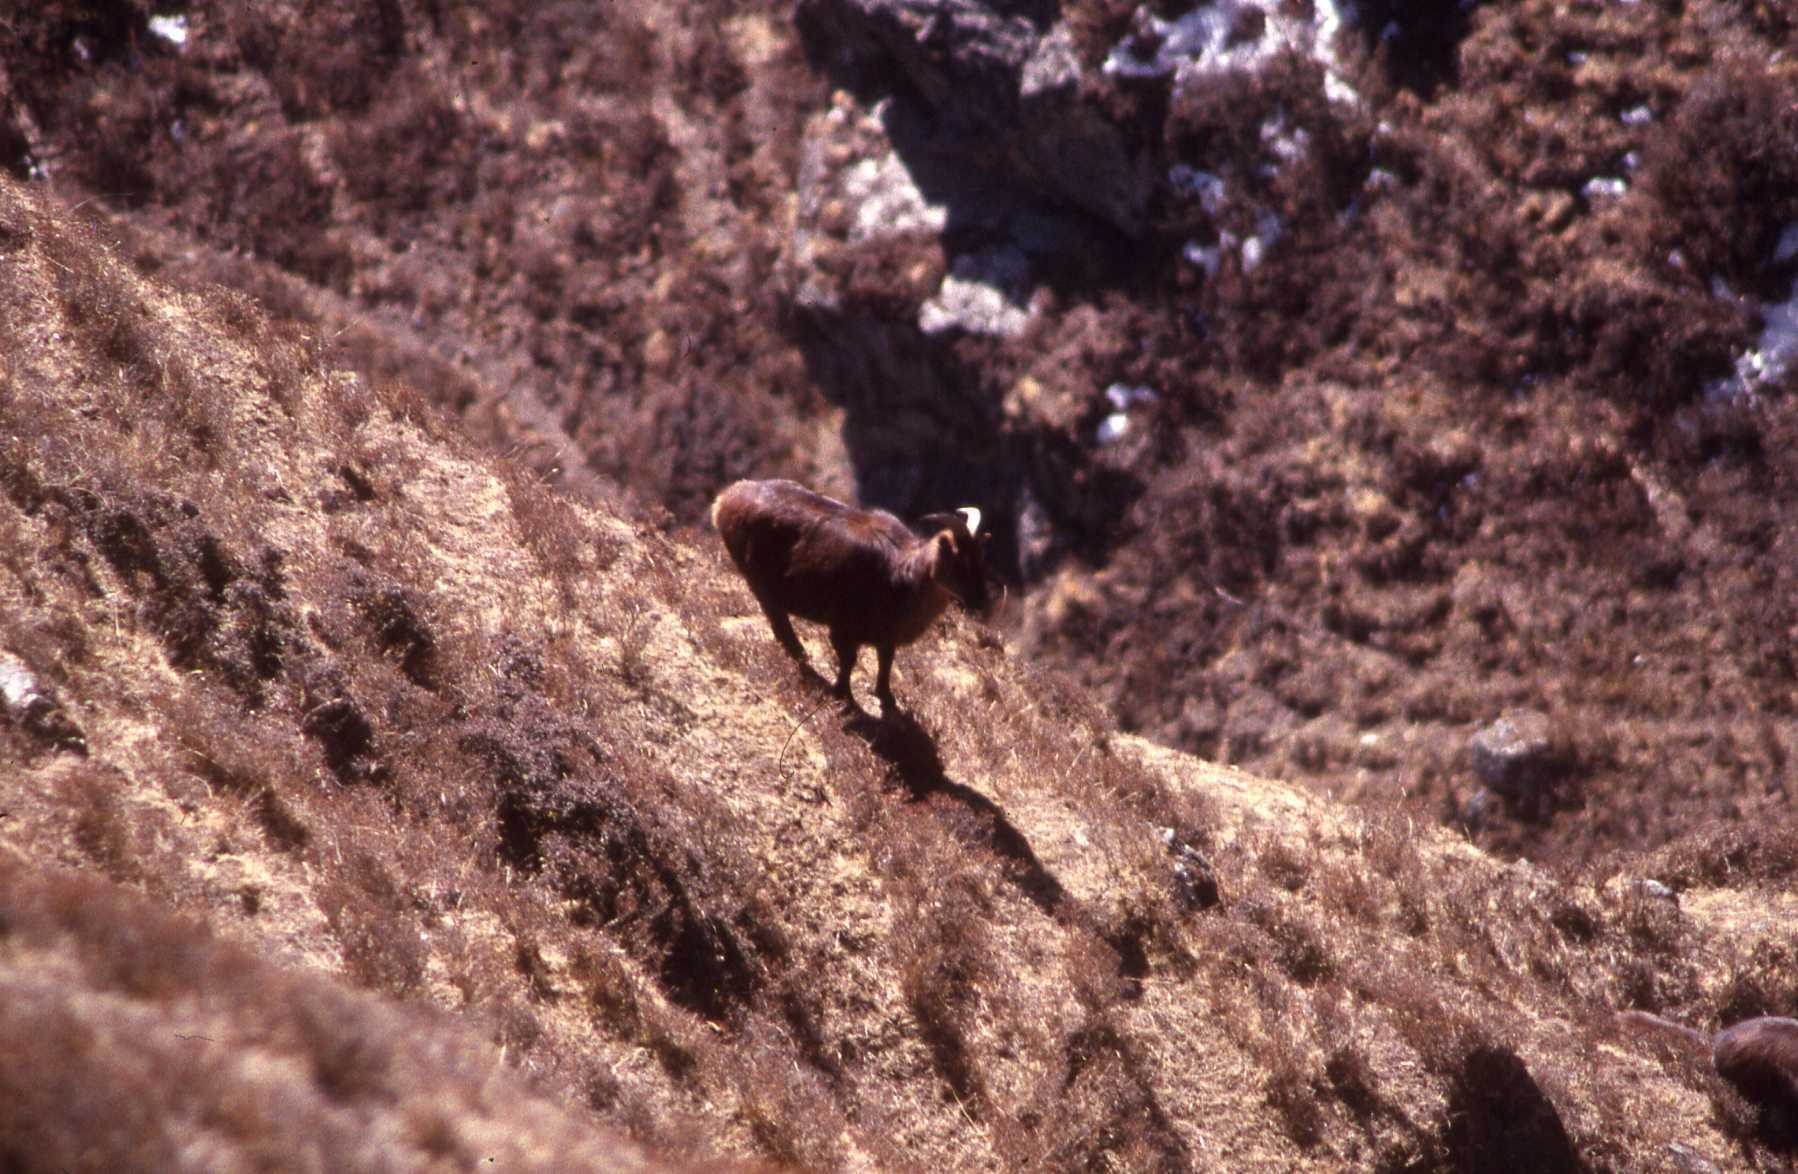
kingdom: Animalia
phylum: Chordata
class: Mammalia
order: Artiodactyla
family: Bovidae
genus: Hemitragus
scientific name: Hemitragus jemlahicus
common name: Himalayan tahr
